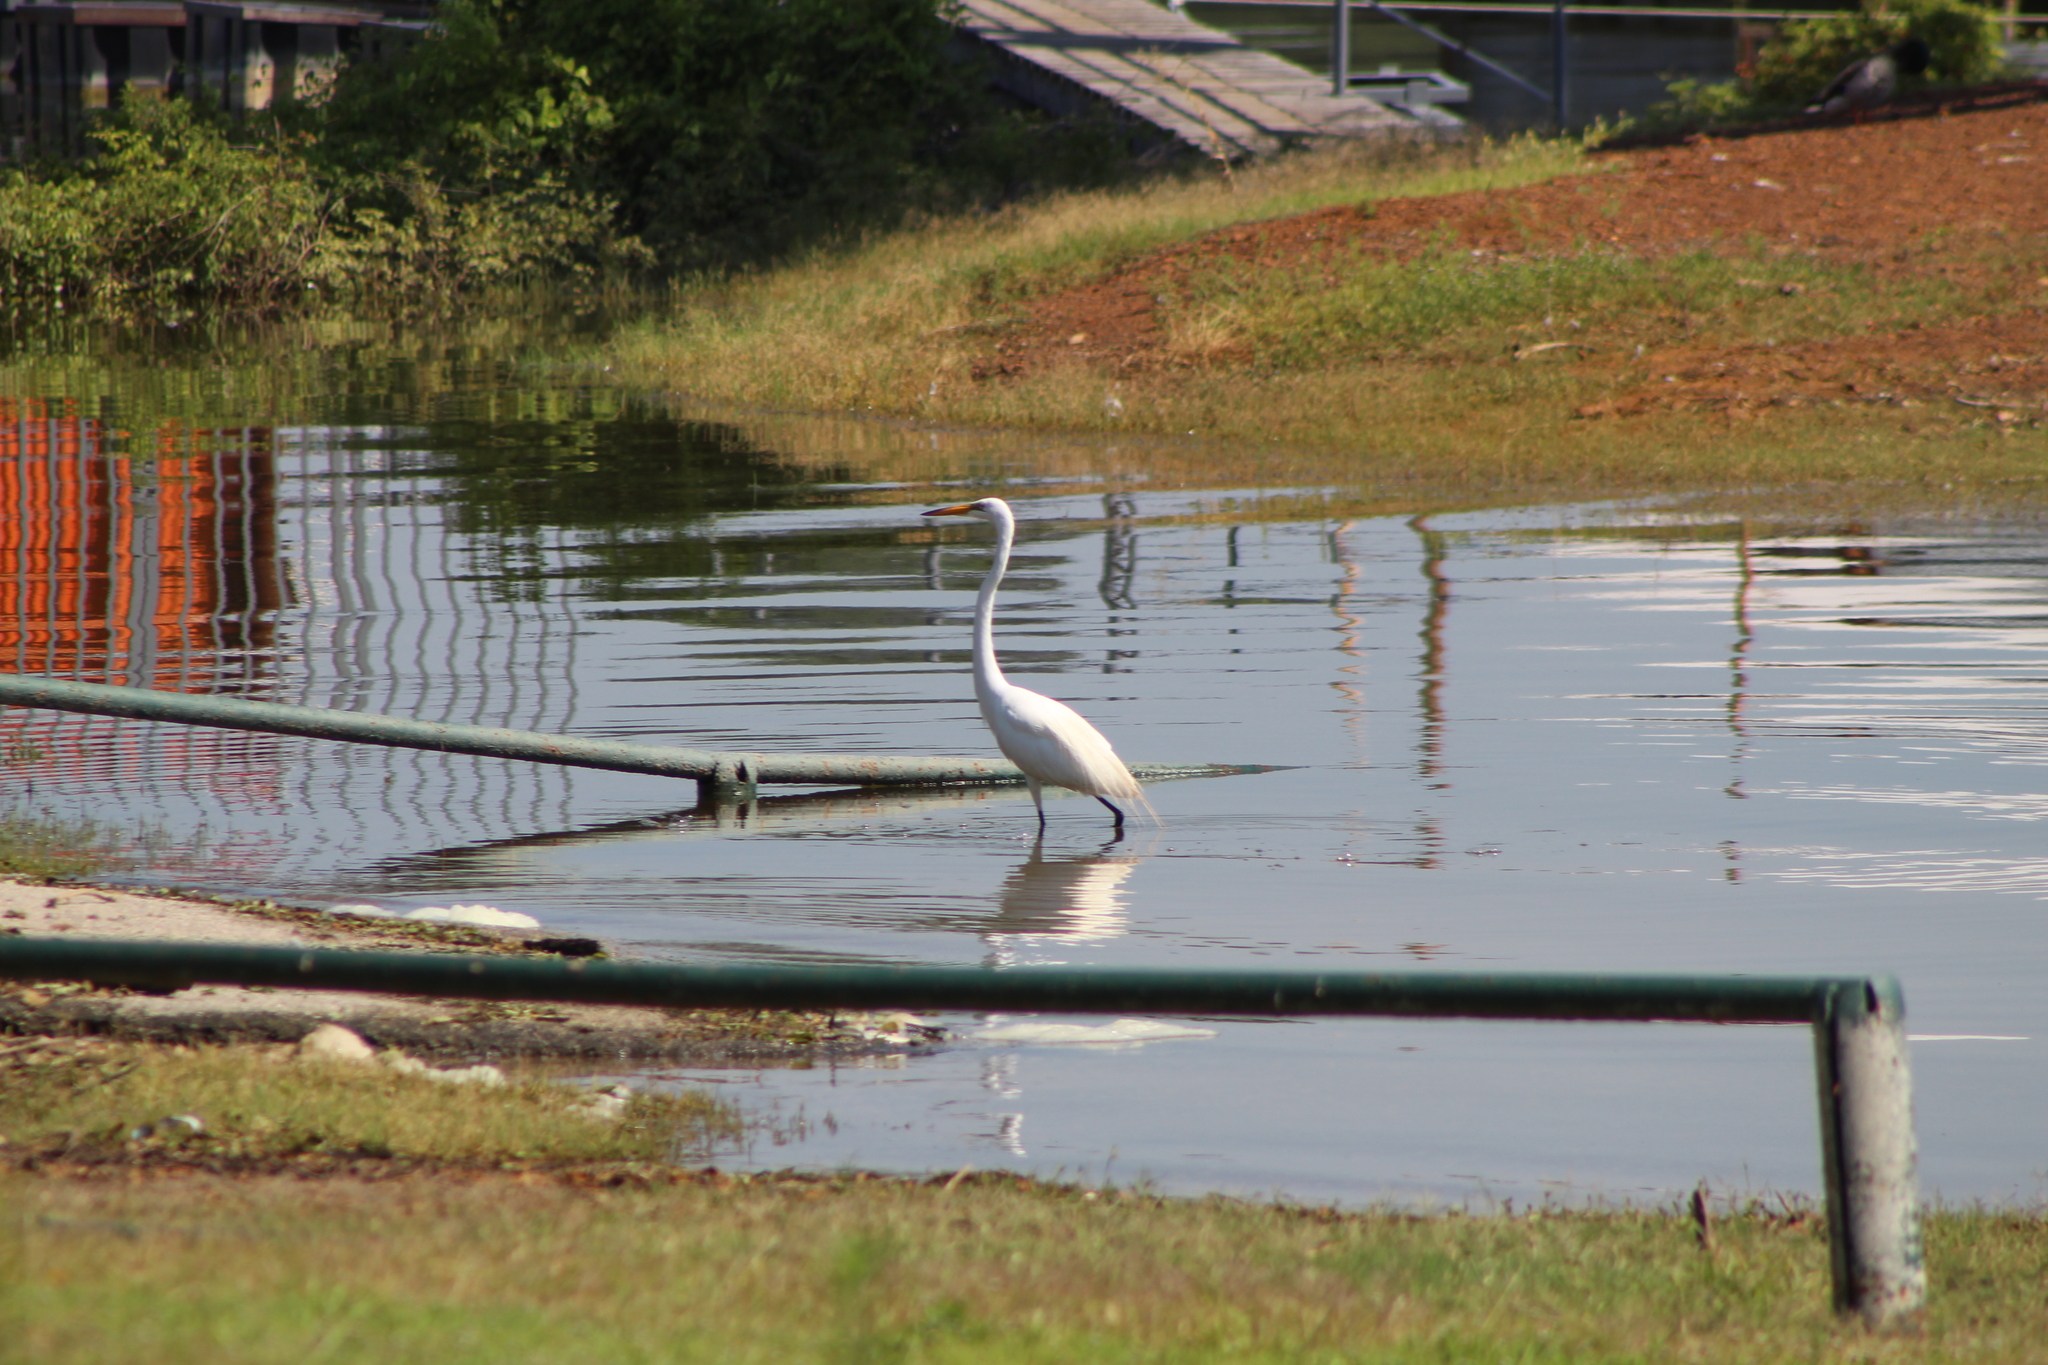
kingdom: Animalia
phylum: Chordata
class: Aves
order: Pelecaniformes
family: Ardeidae
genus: Ardea
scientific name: Ardea alba
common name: Great egret
